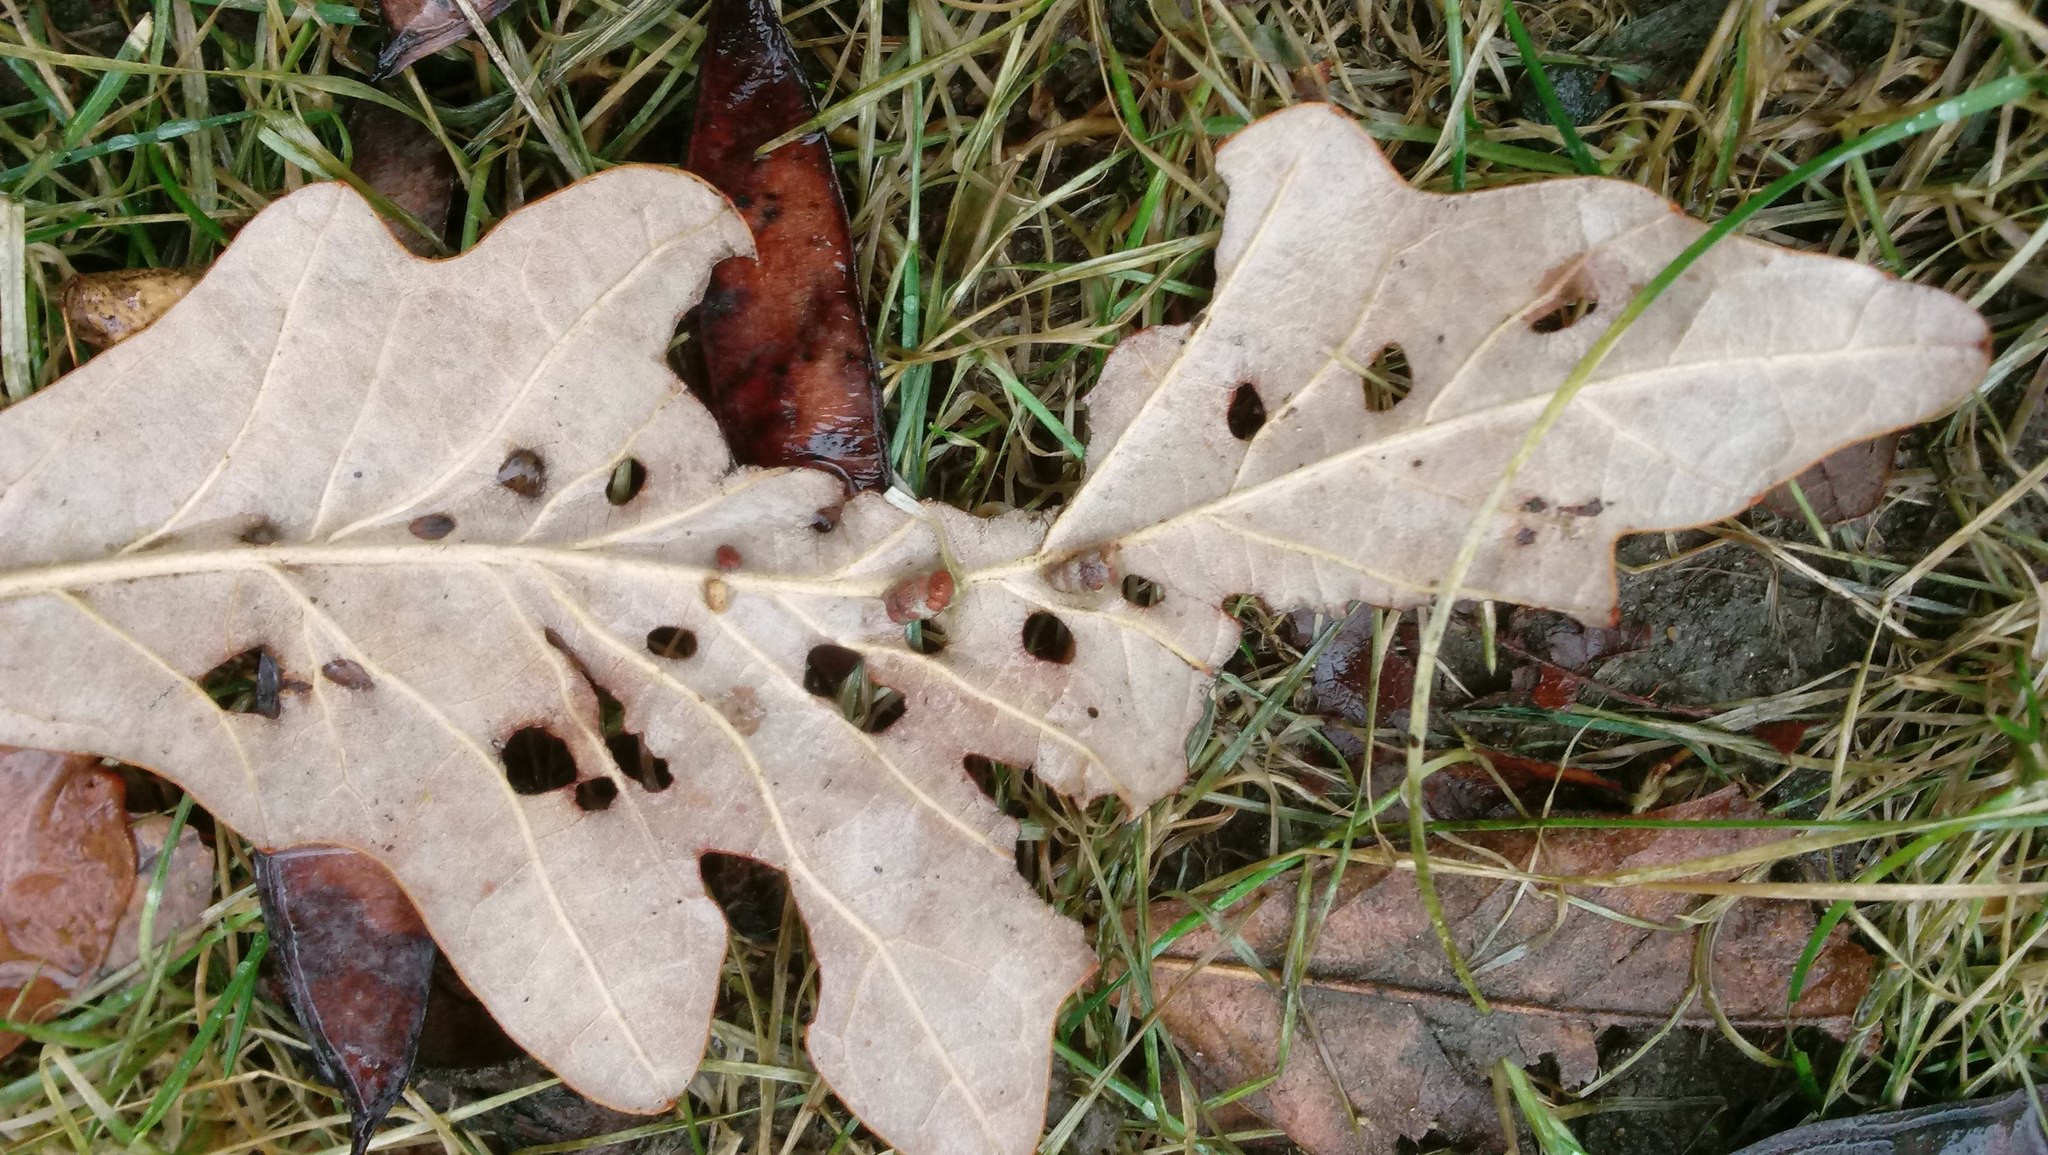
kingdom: Animalia
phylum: Arthropoda
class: Insecta
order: Hymenoptera
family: Cynipidae
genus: Andricus
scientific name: Andricus Druon ignotum
